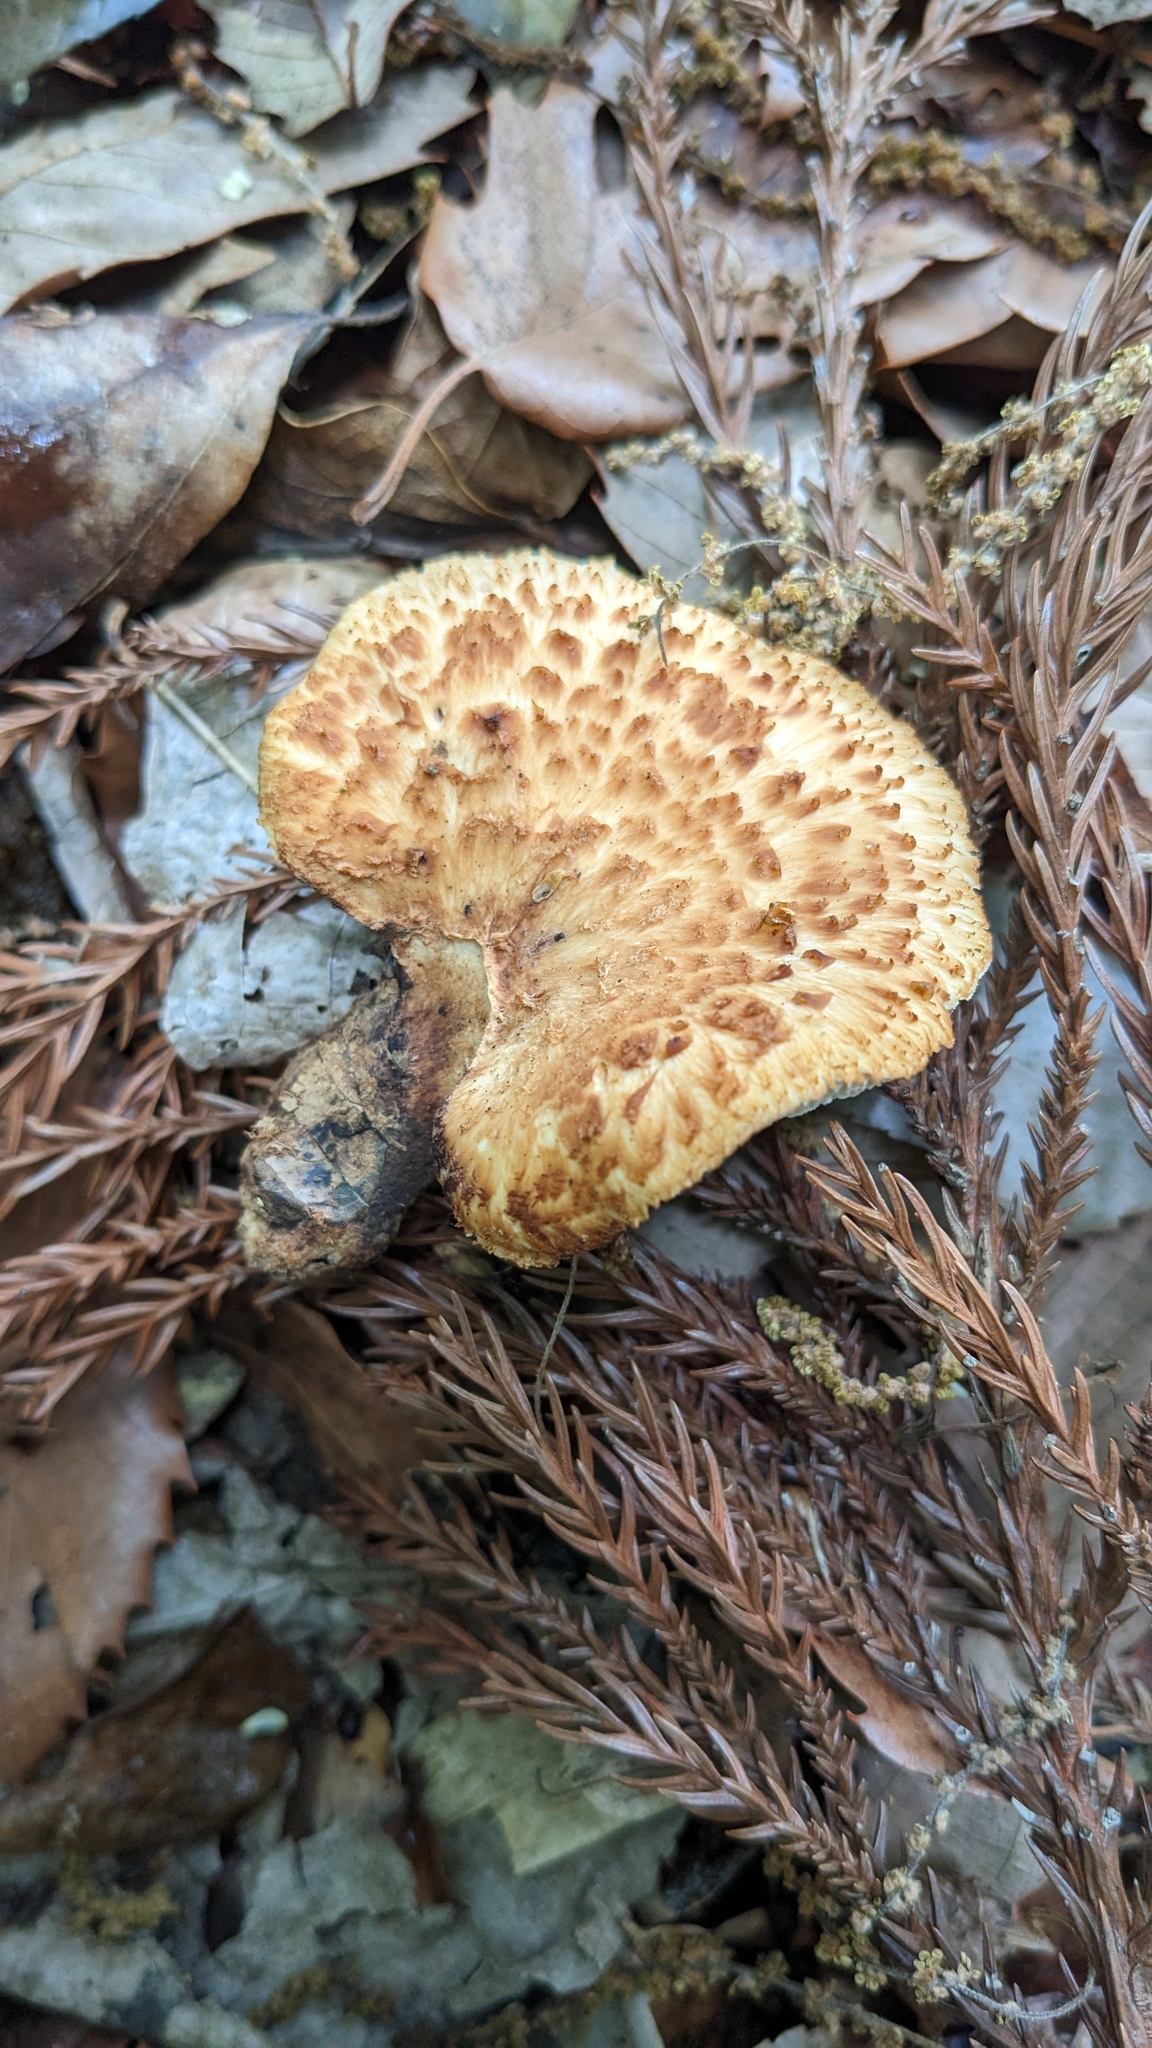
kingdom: Fungi
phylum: Basidiomycota
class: Agaricomycetes
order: Polyporales
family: Polyporaceae
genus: Cerioporus
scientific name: Cerioporus squamosus
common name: Dryad's saddle
